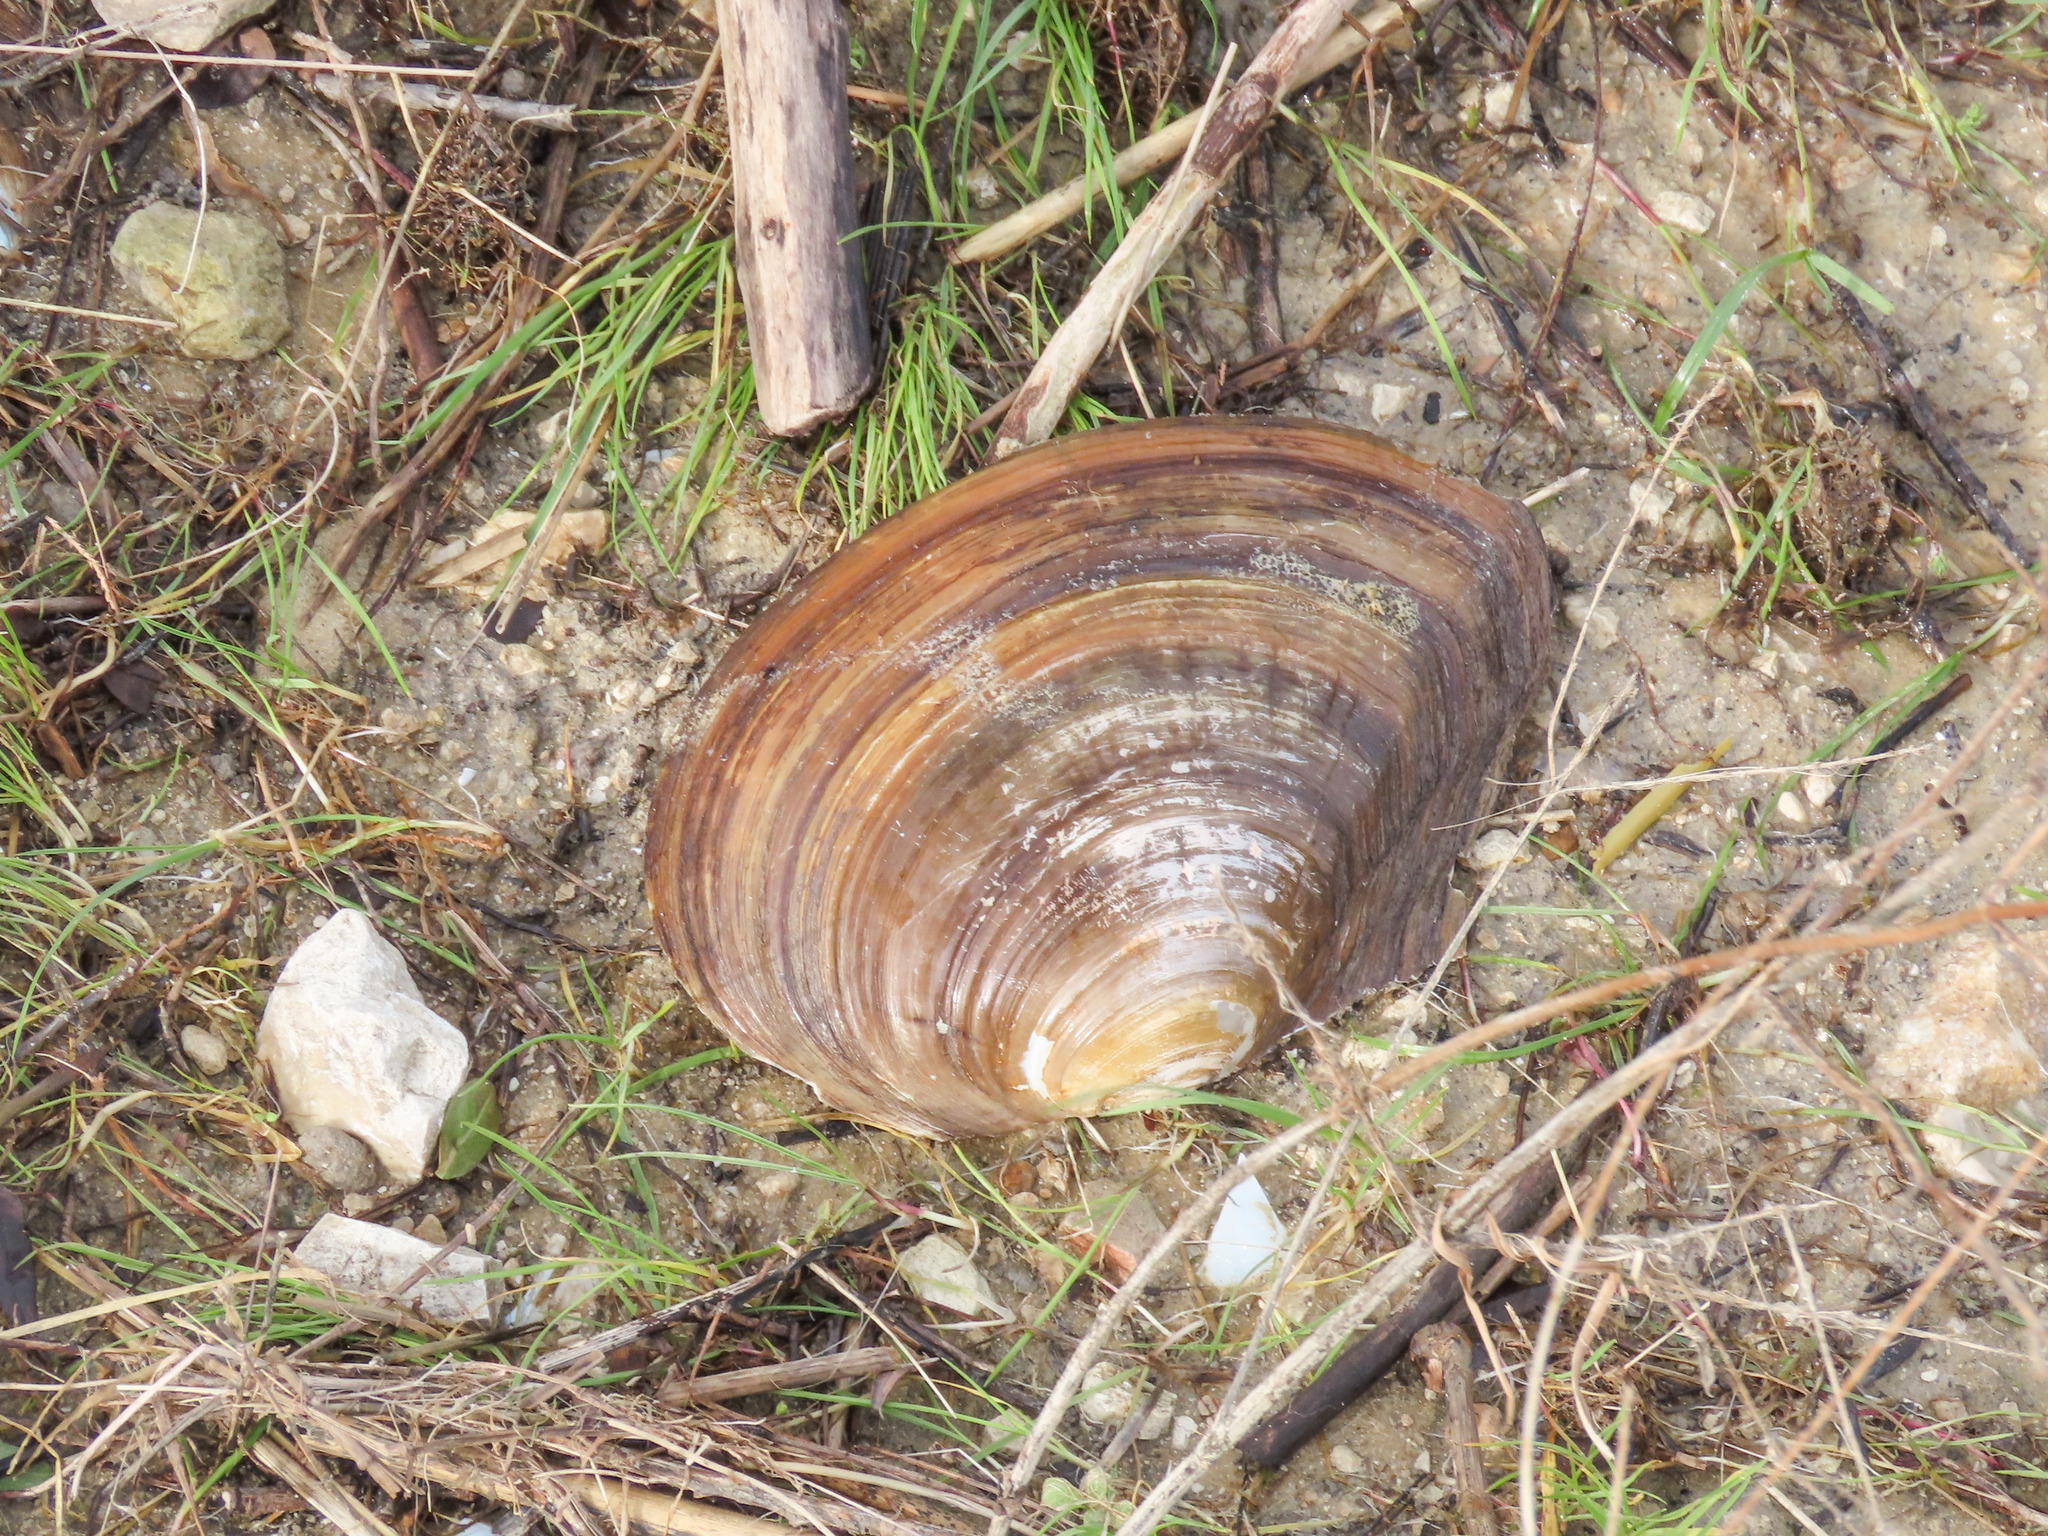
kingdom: Animalia
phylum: Mollusca
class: Bivalvia
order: Unionida
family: Unionidae
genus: Sinanodonta
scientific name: Sinanodonta woodiana
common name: Chinese pond mussel
